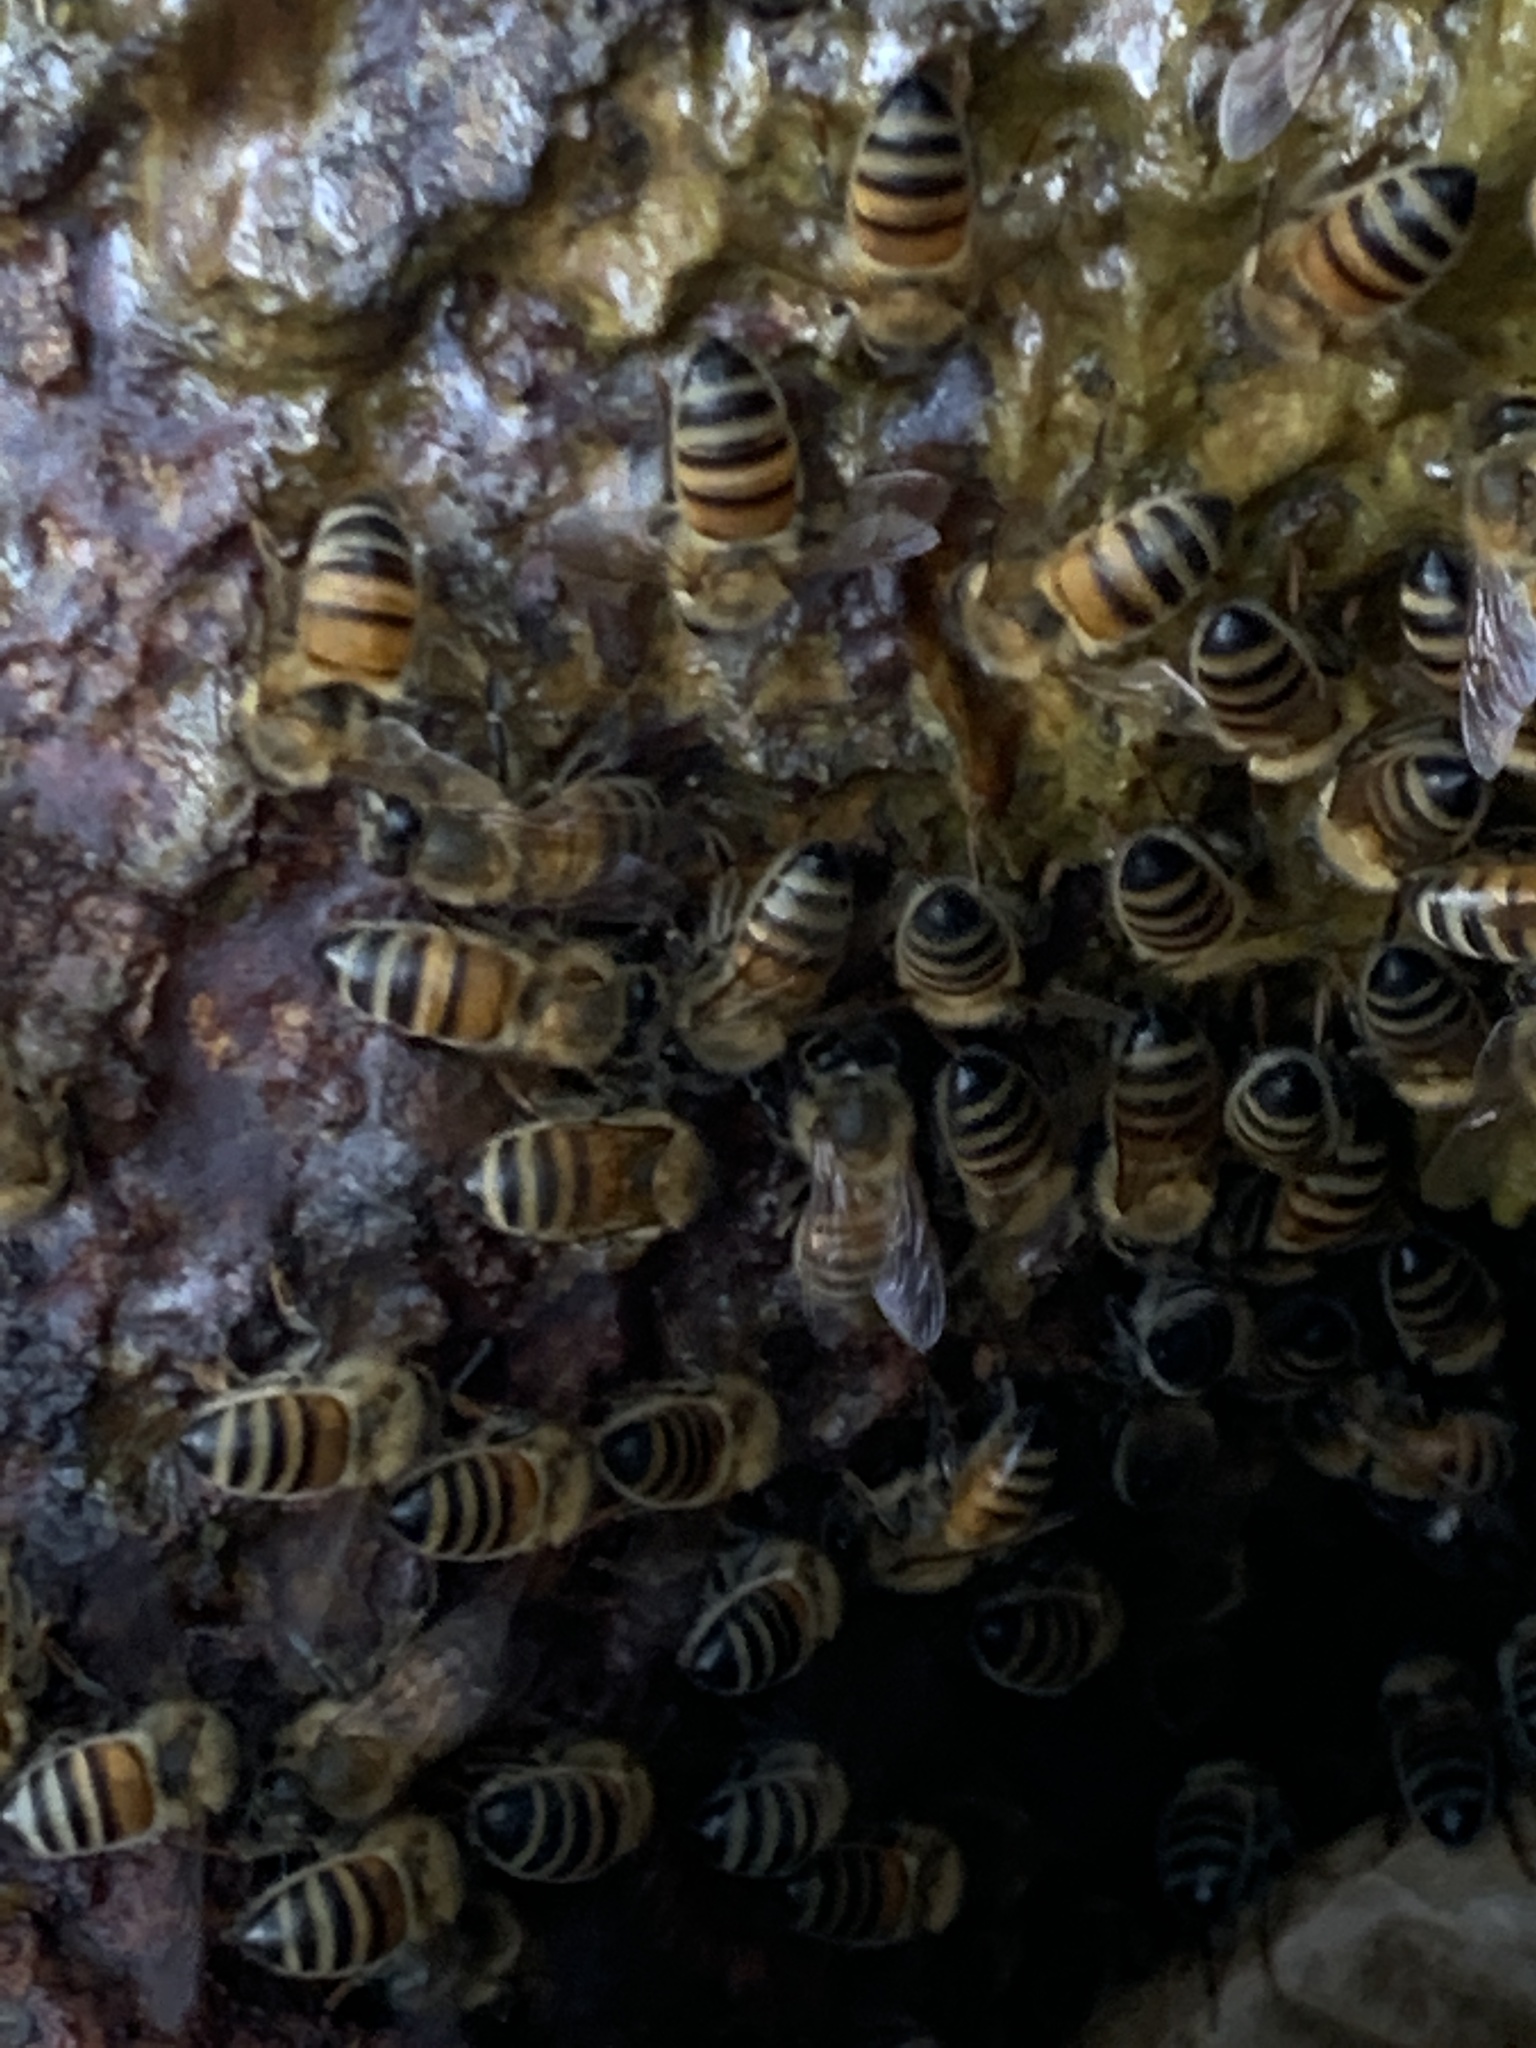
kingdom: Animalia
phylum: Arthropoda
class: Insecta
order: Hymenoptera
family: Apidae
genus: Apis
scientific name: Apis mellifera
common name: Honey bee
